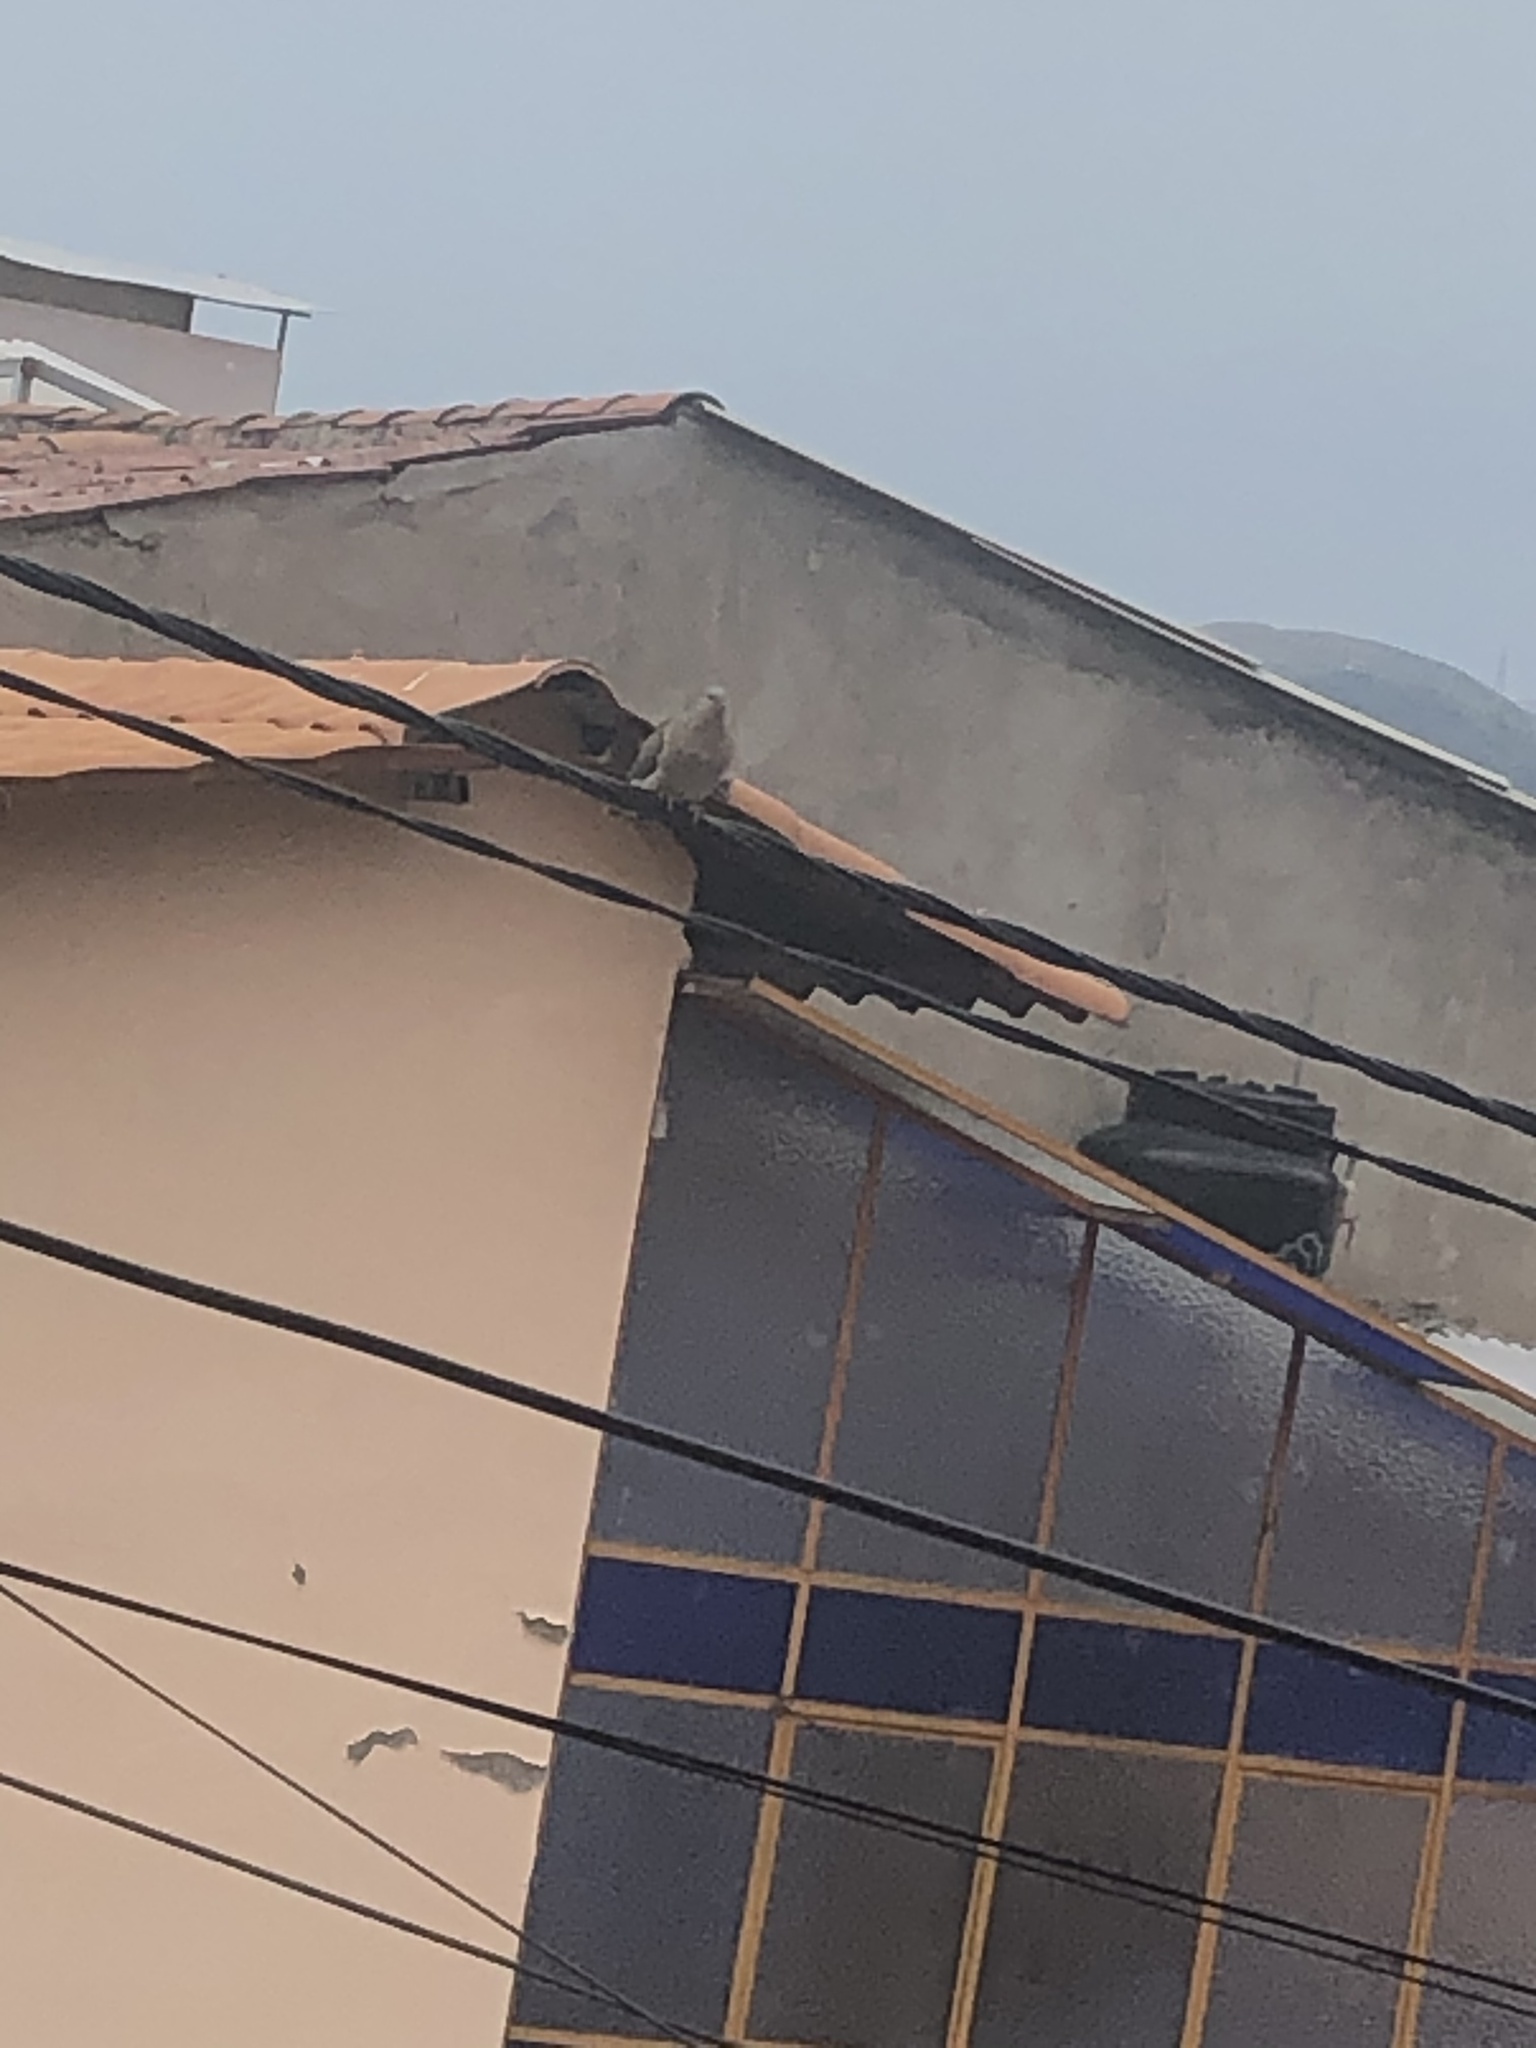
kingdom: Animalia
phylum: Chordata
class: Aves
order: Columbiformes
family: Columbidae
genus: Zenaida
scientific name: Zenaida auriculata
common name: Eared dove
